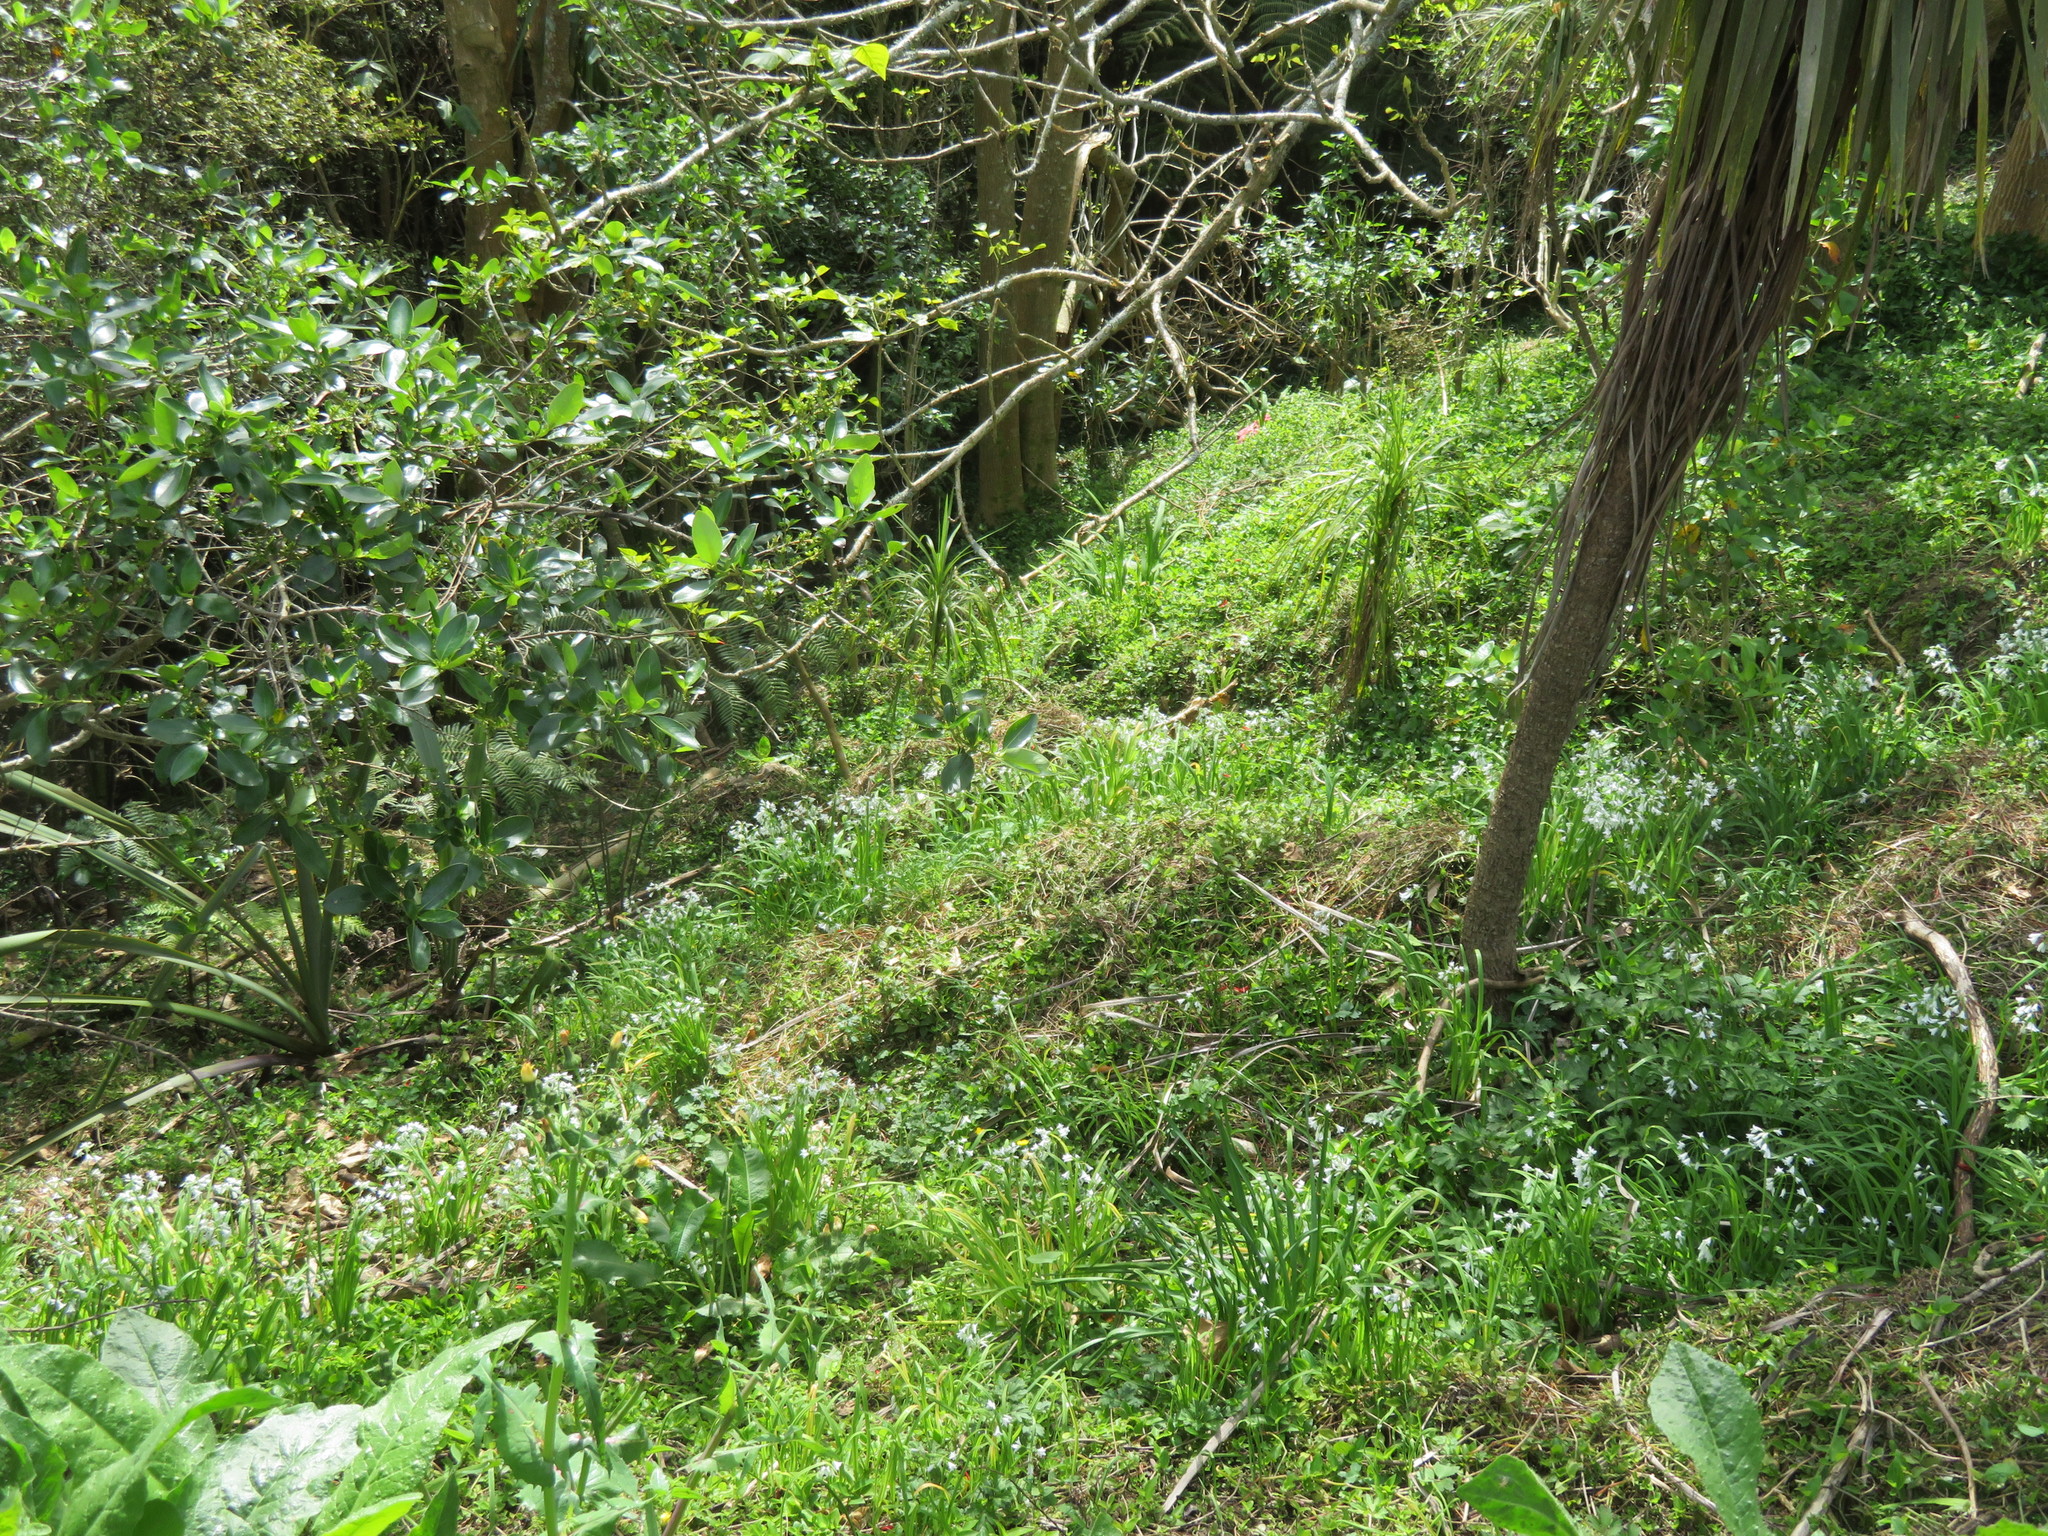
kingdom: Plantae
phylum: Tracheophyta
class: Liliopsida
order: Asparagales
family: Amaryllidaceae
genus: Allium
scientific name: Allium triquetrum
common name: Three-cornered garlic
